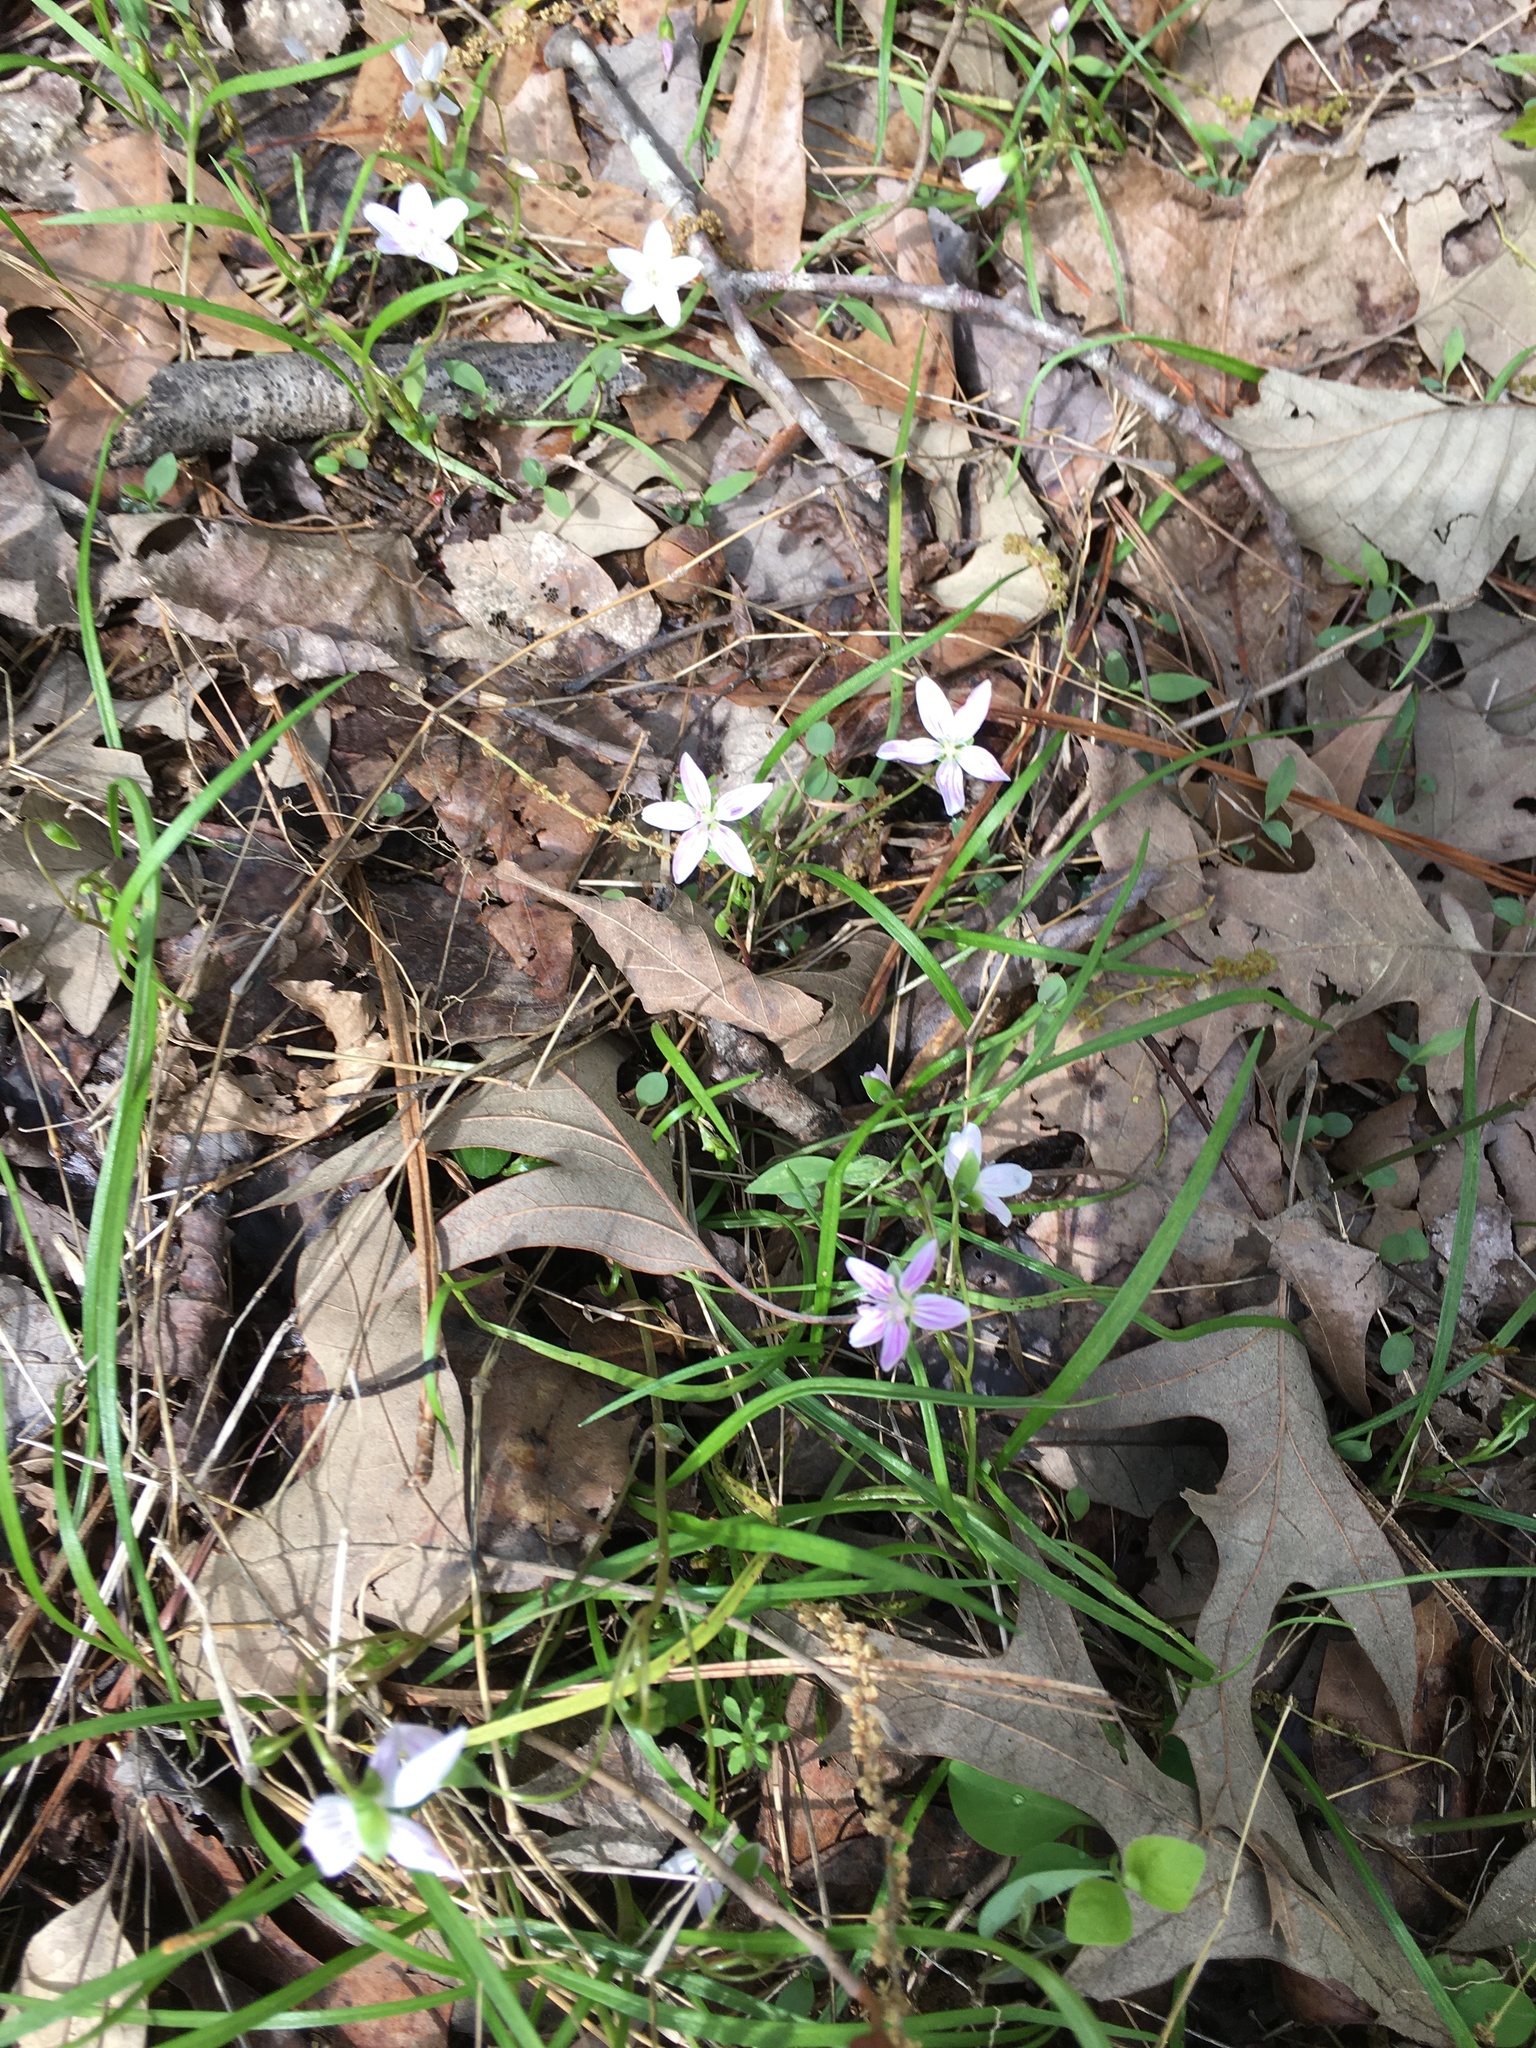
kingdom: Plantae
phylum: Tracheophyta
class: Magnoliopsida
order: Caryophyllales
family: Montiaceae
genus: Claytonia
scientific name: Claytonia virginica
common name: Virginia springbeauty
